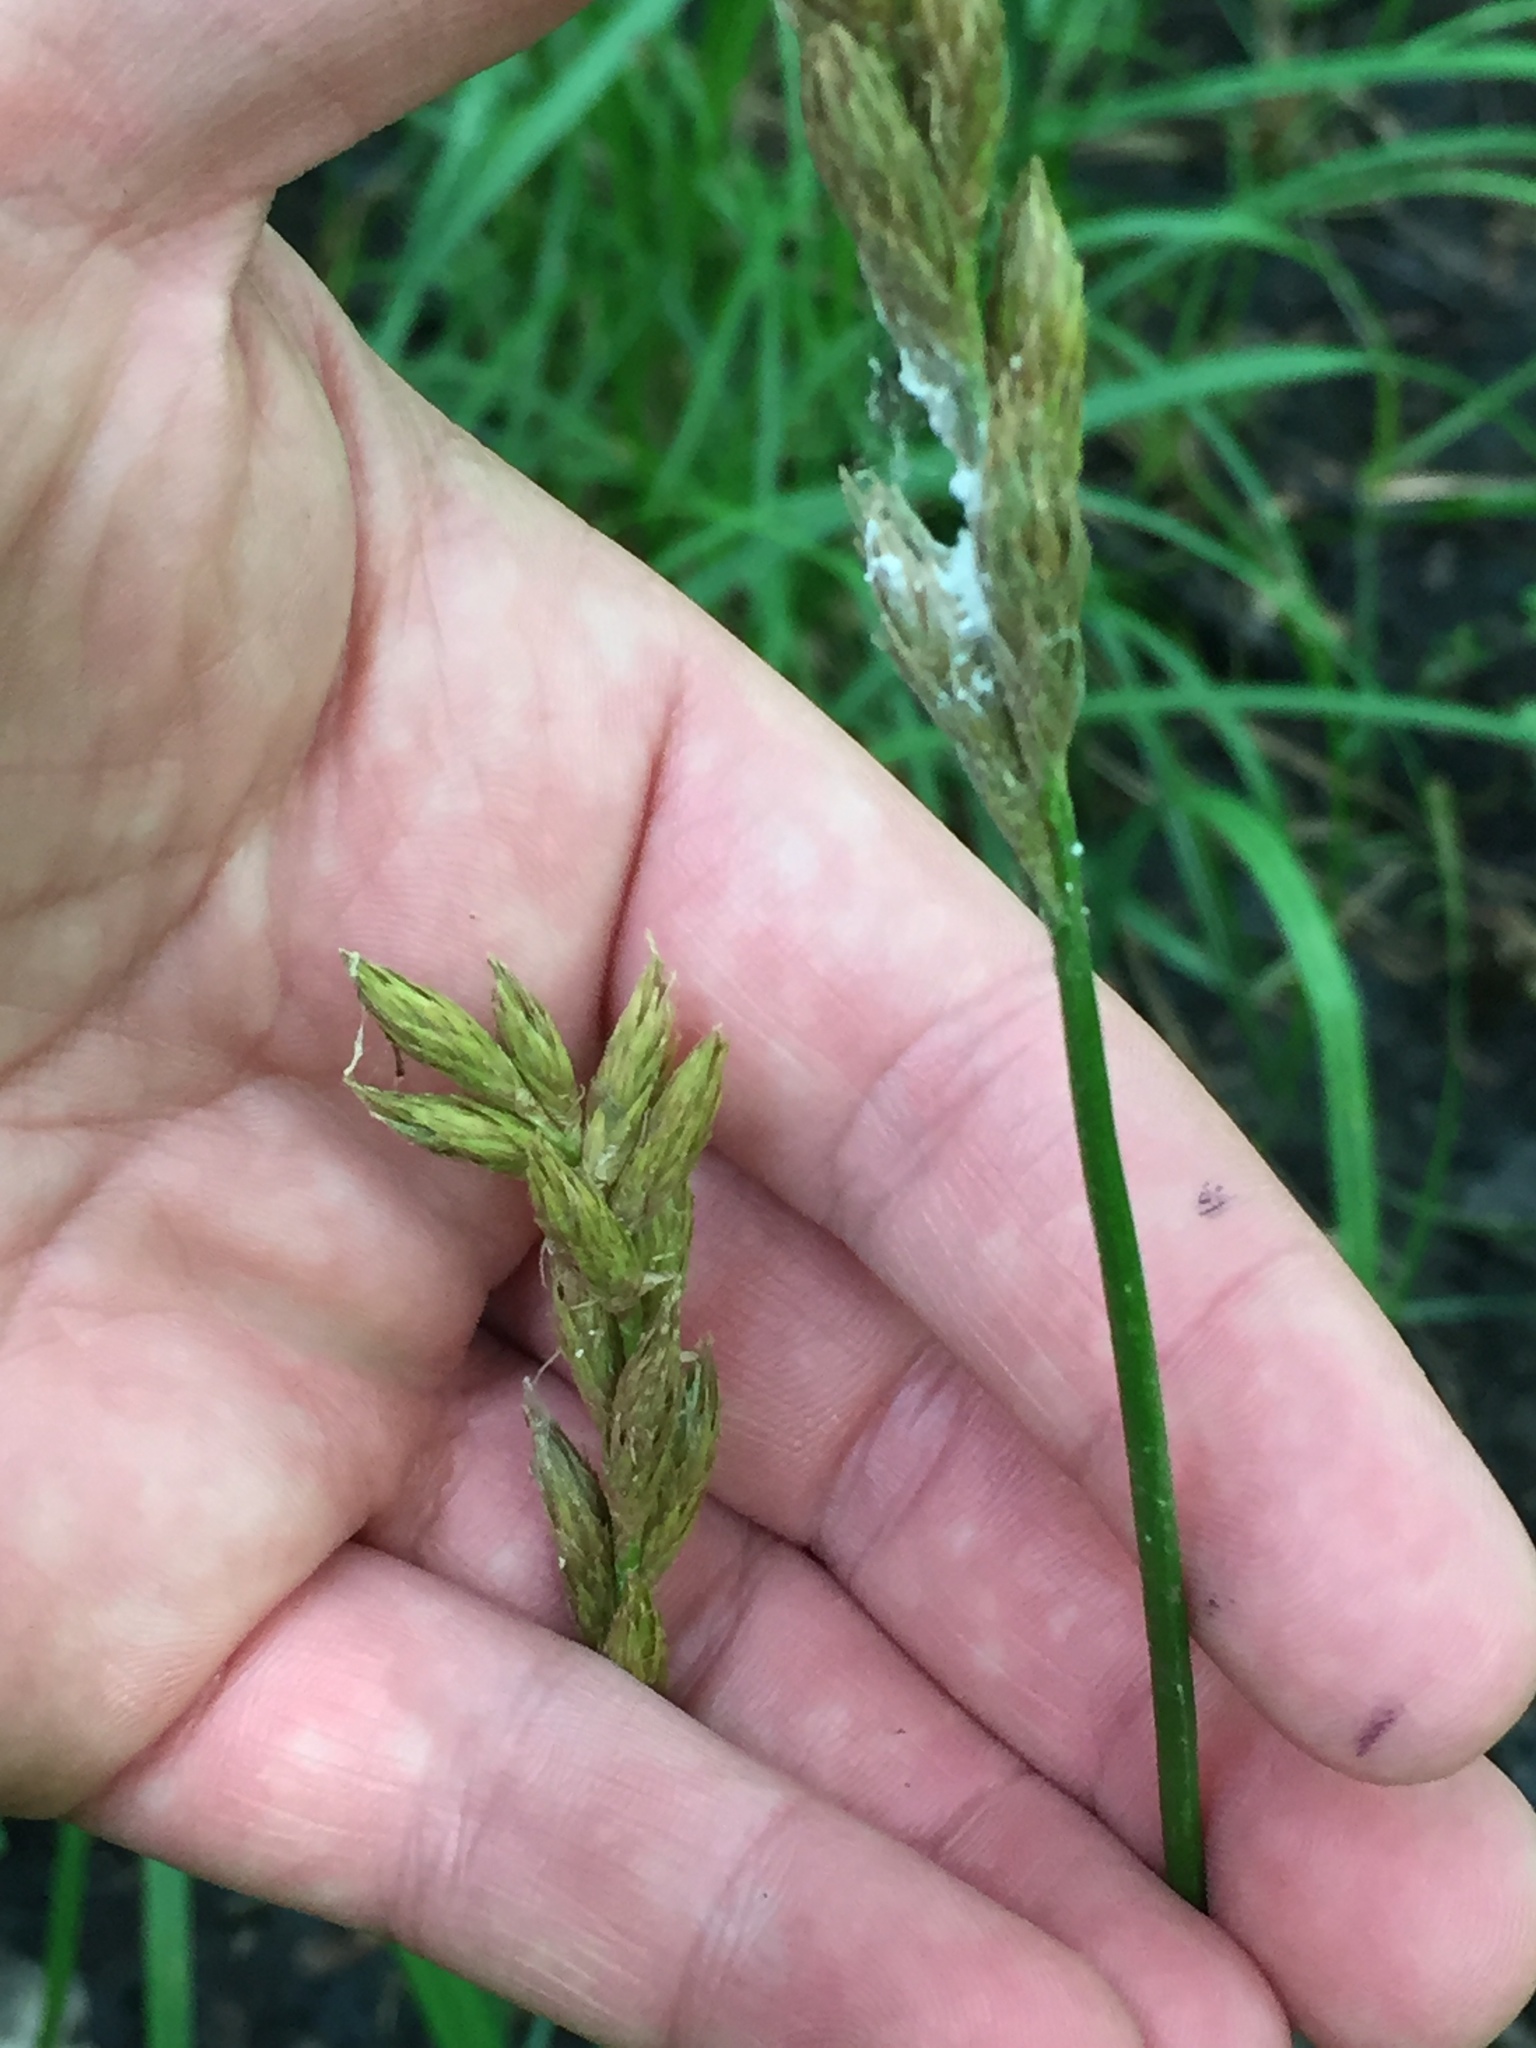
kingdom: Plantae
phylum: Tracheophyta
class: Liliopsida
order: Poales
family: Cyperaceae
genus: Carex
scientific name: Carex muskingumensis
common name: Muskingum sedge
